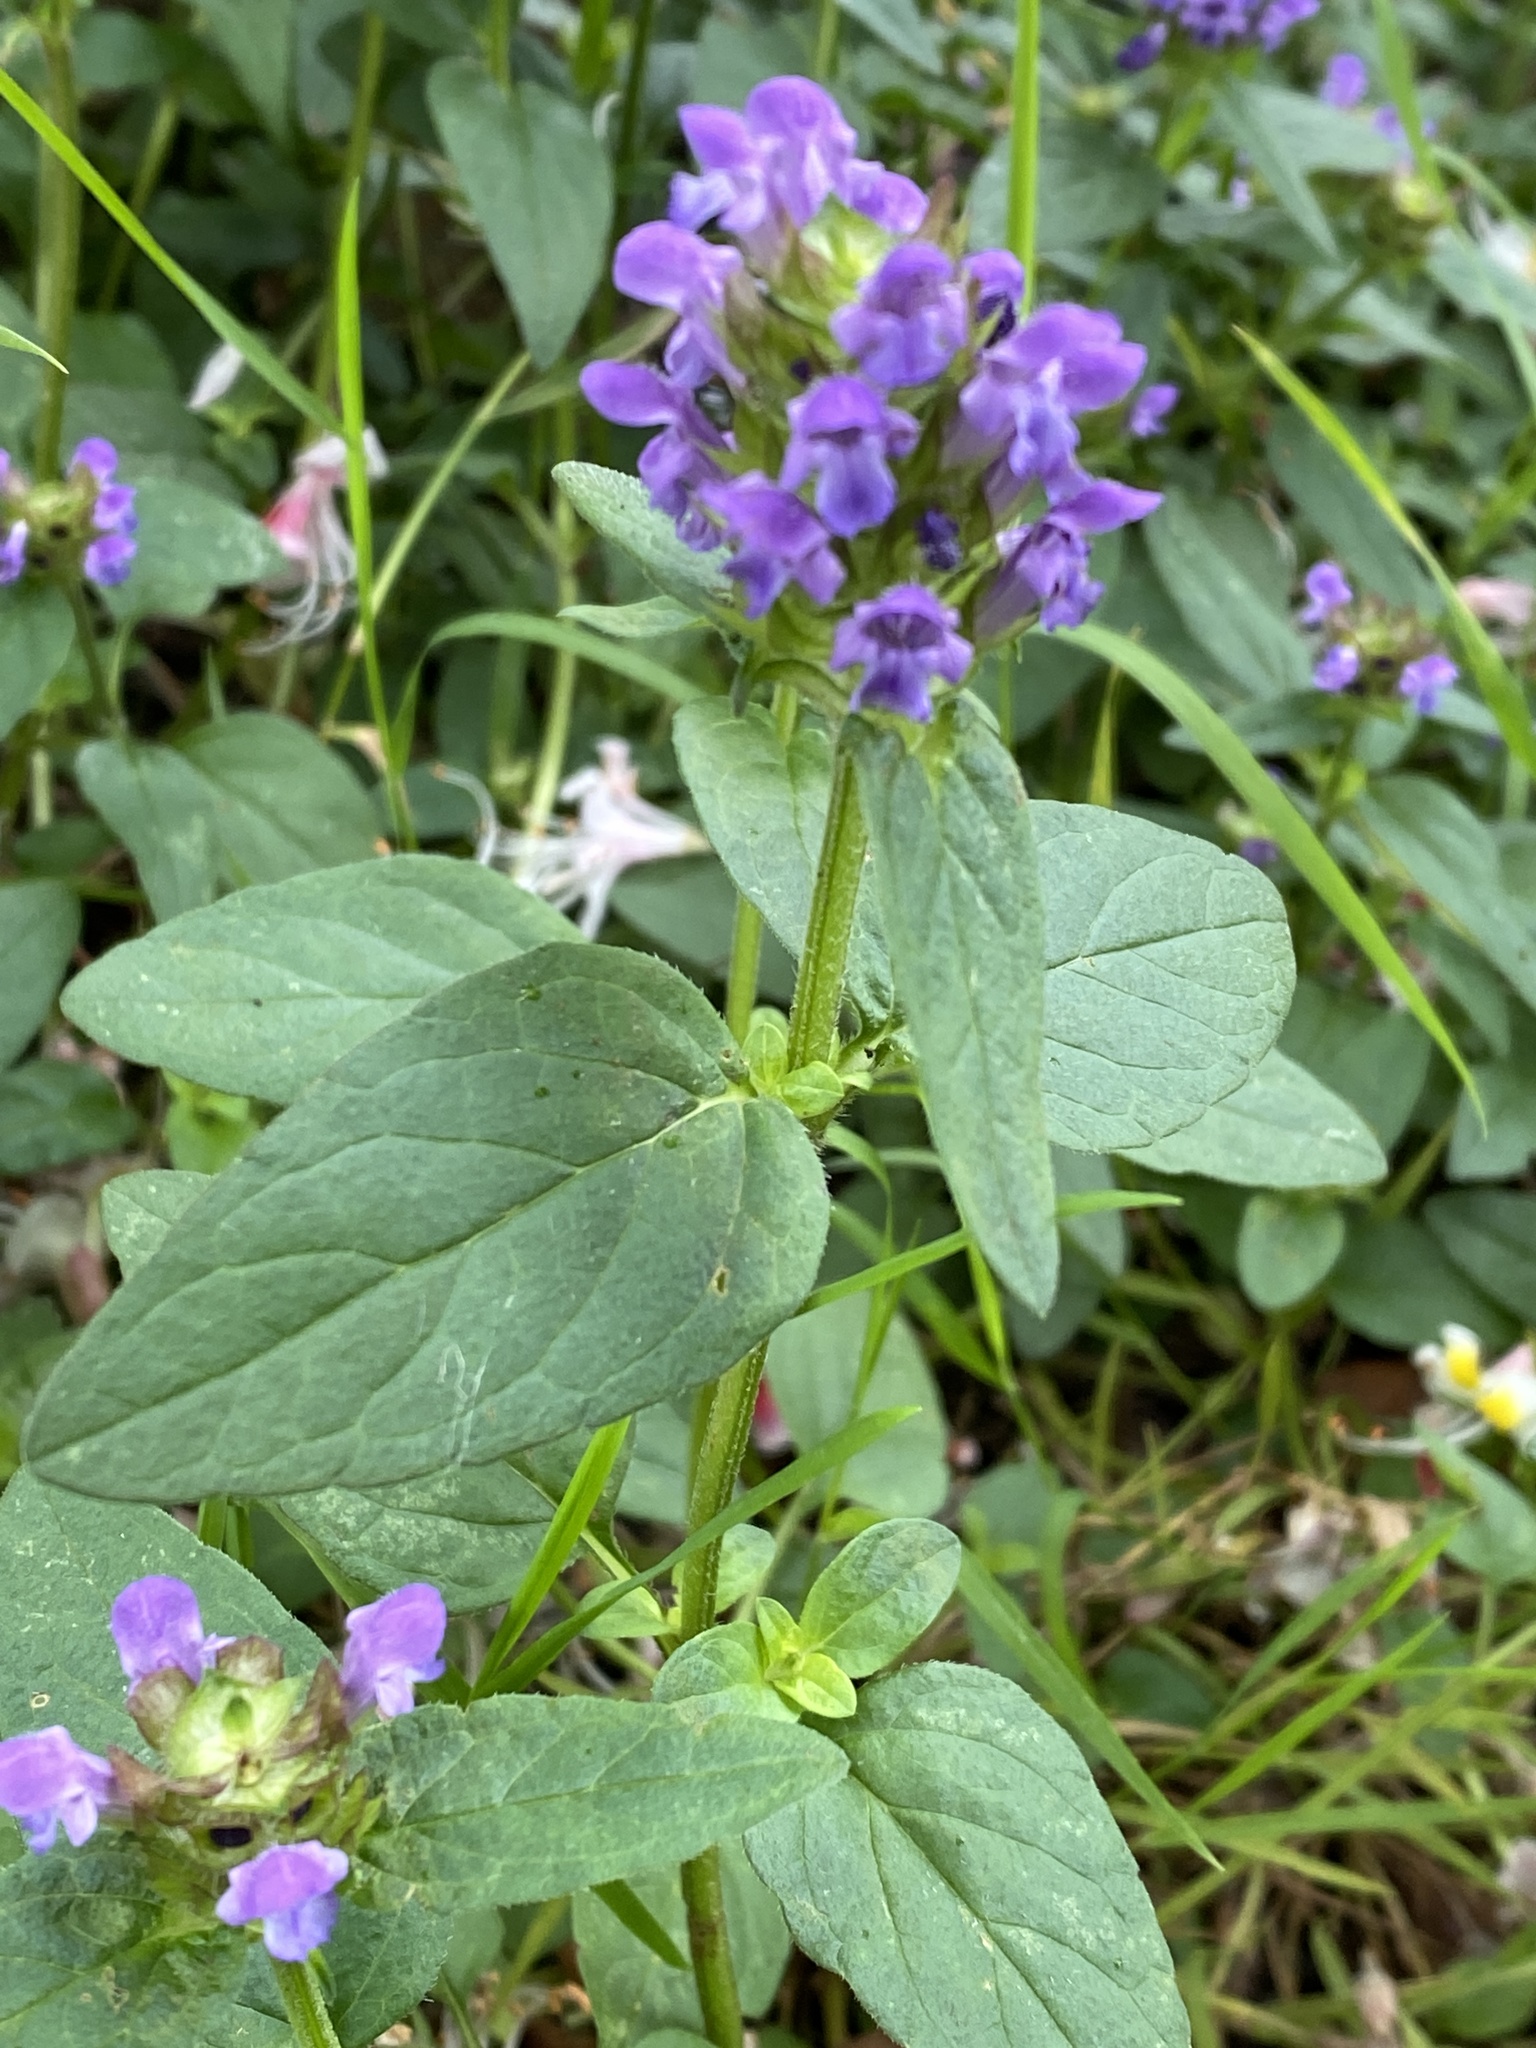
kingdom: Plantae
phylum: Tracheophyta
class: Magnoliopsida
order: Lamiales
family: Lamiaceae
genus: Prunella
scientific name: Prunella vulgaris
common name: Heal-all
